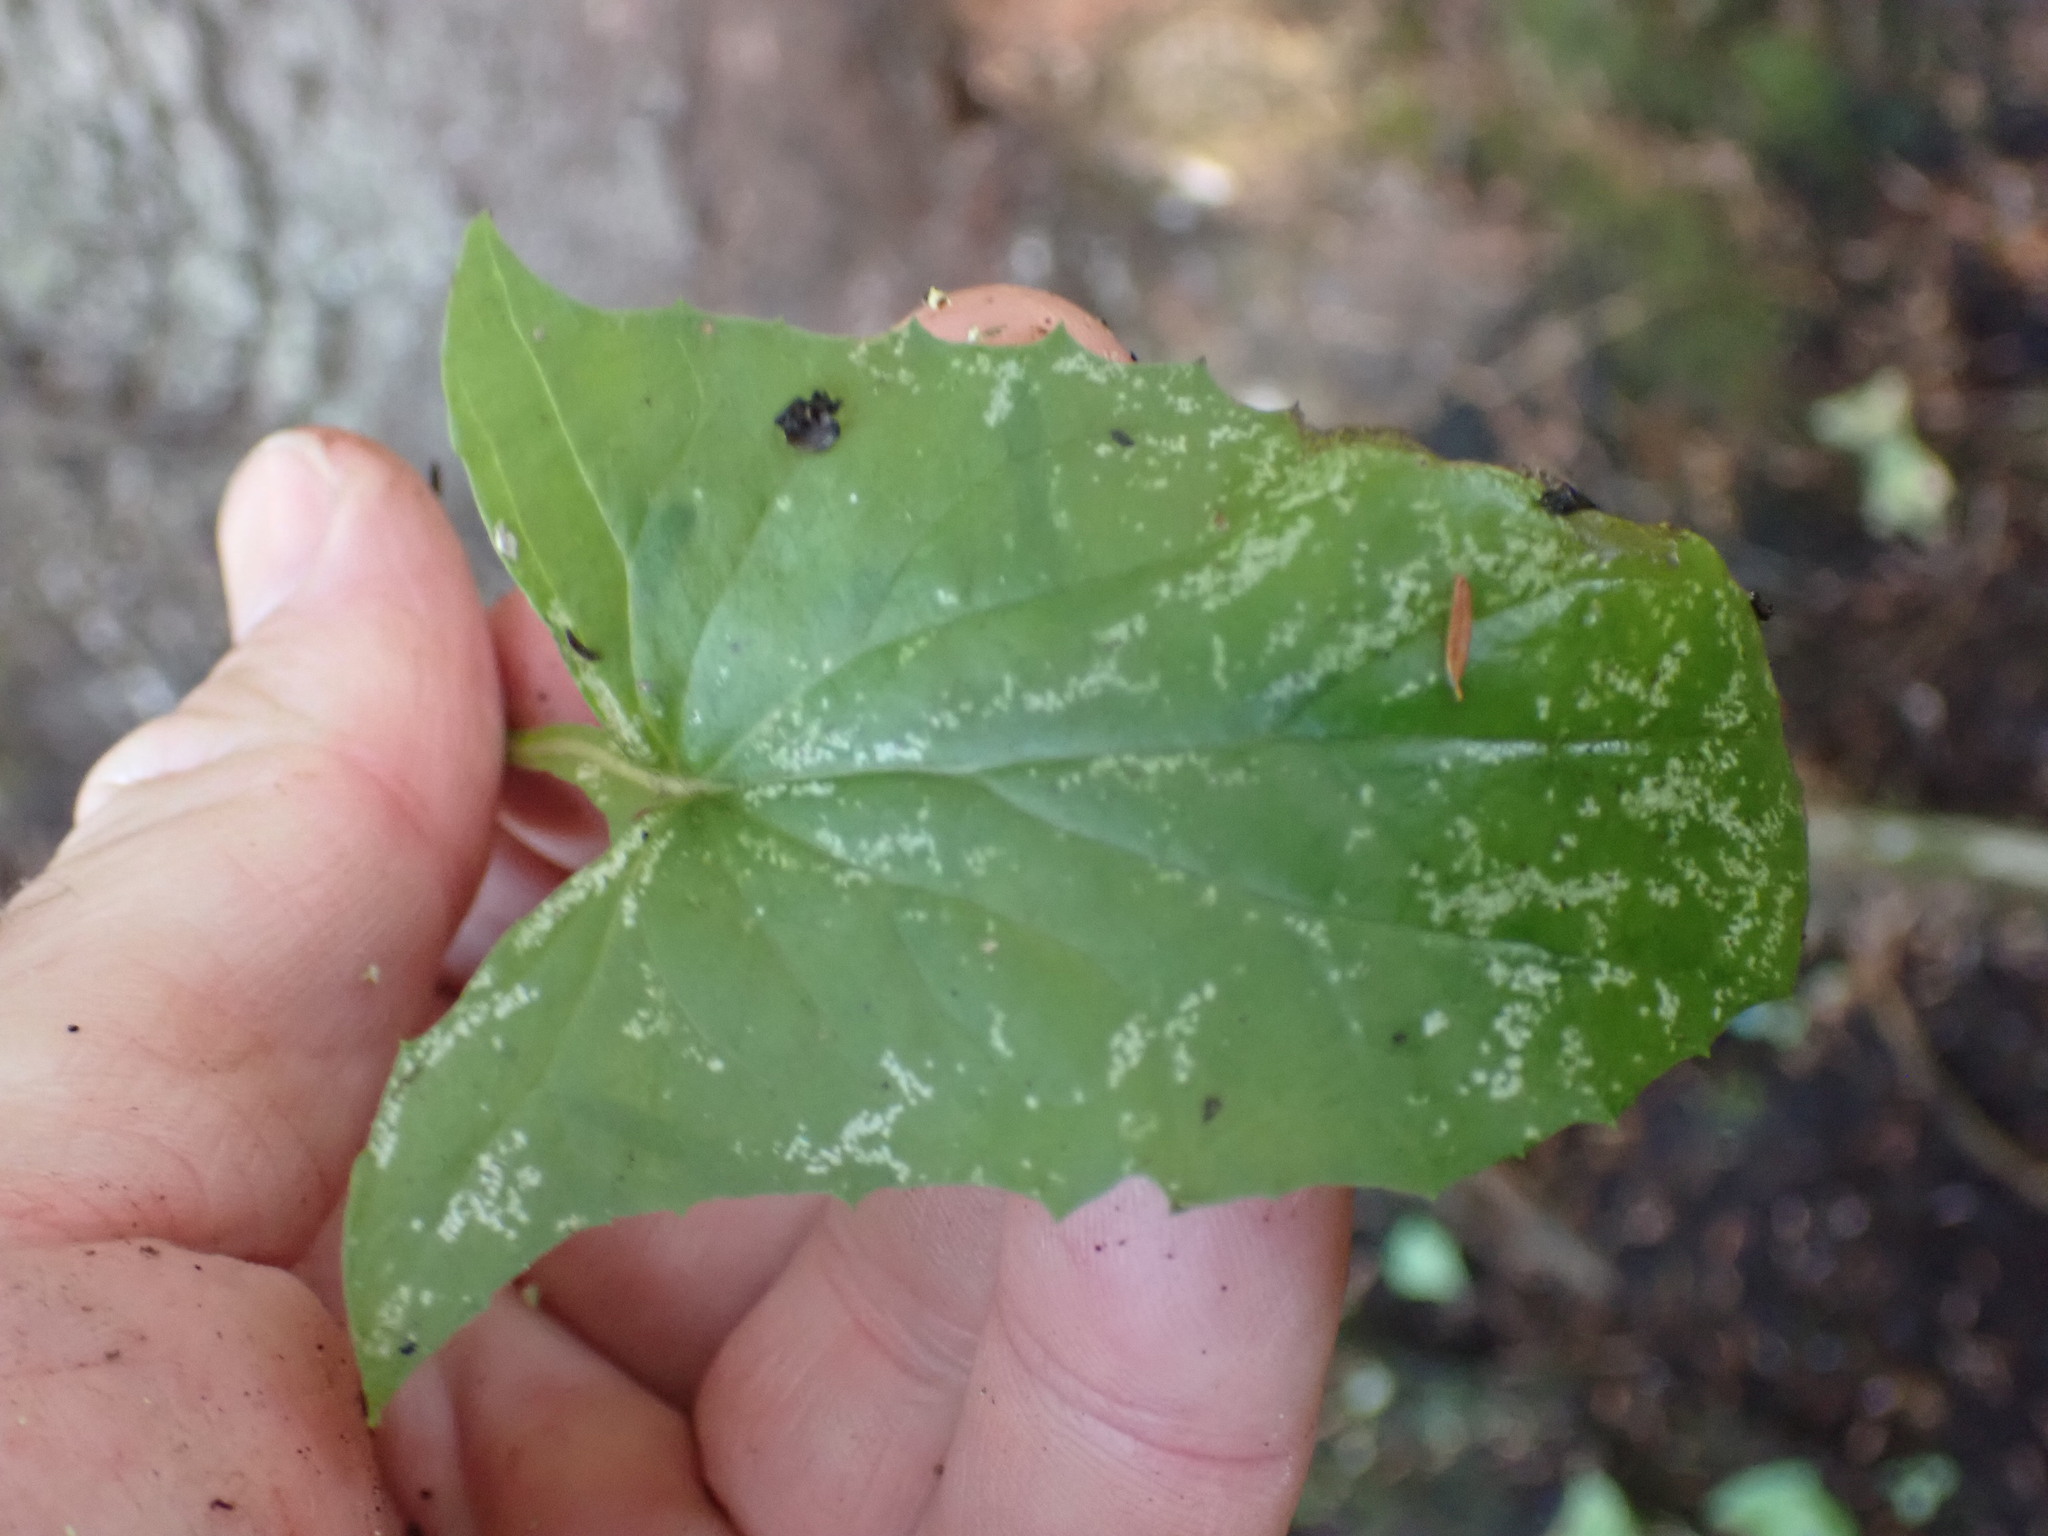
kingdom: Plantae
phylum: Tracheophyta
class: Magnoliopsida
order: Asterales
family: Asteraceae
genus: Nabalus
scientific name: Nabalus hastatus
